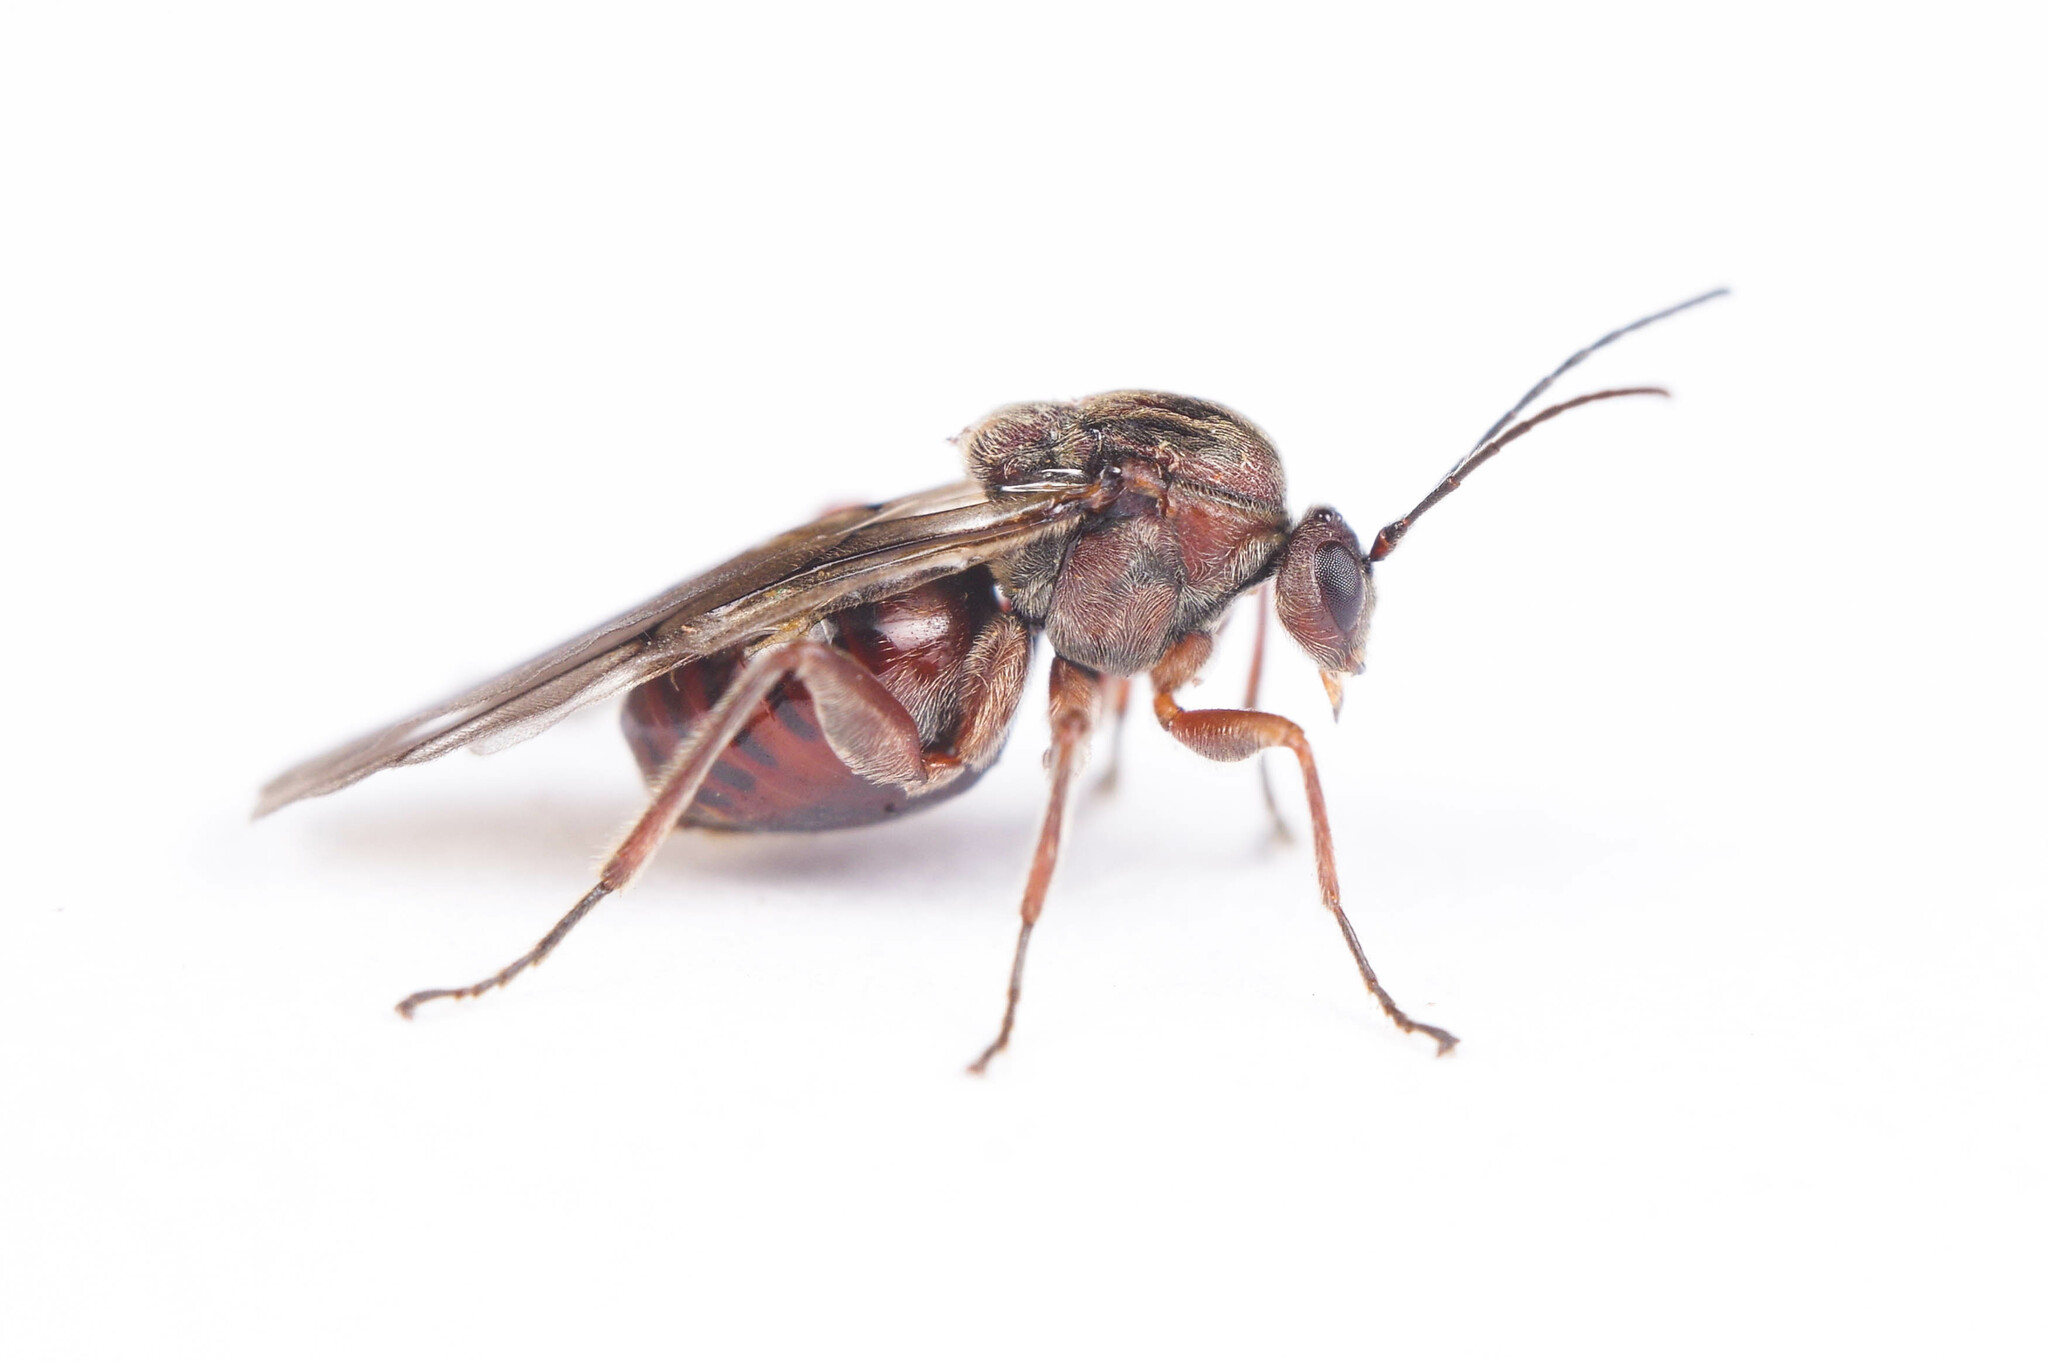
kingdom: Animalia
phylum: Arthropoda
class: Insecta
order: Hymenoptera
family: Cynipidae
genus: Disholcaspis
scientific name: Disholcaspis
